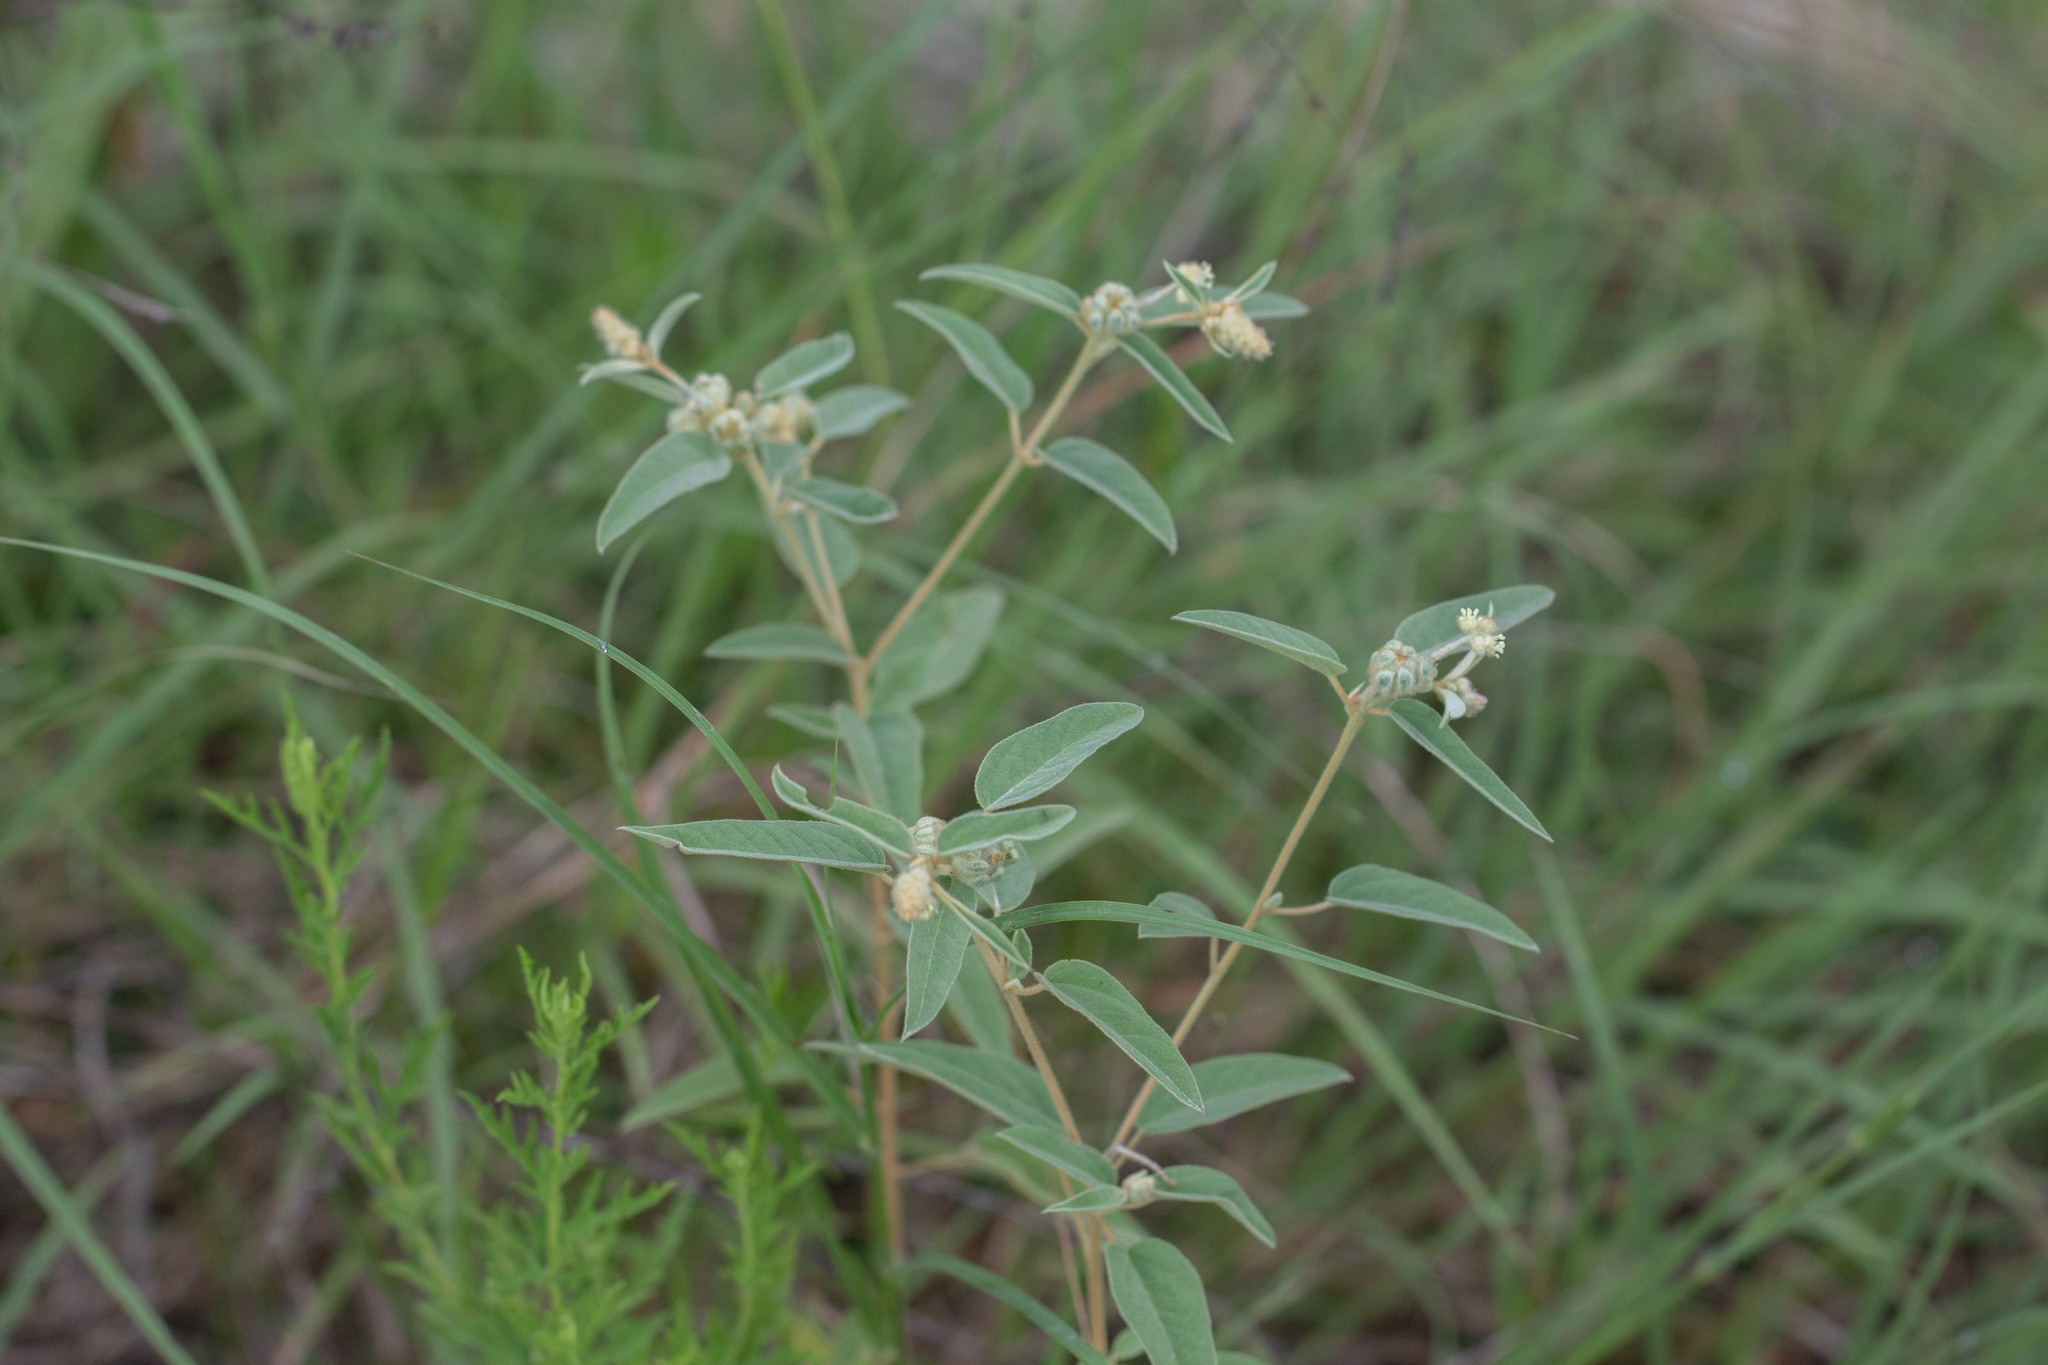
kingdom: Plantae
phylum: Tracheophyta
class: Magnoliopsida
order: Malpighiales
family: Euphorbiaceae
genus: Croton
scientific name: Croton lindheimeri
